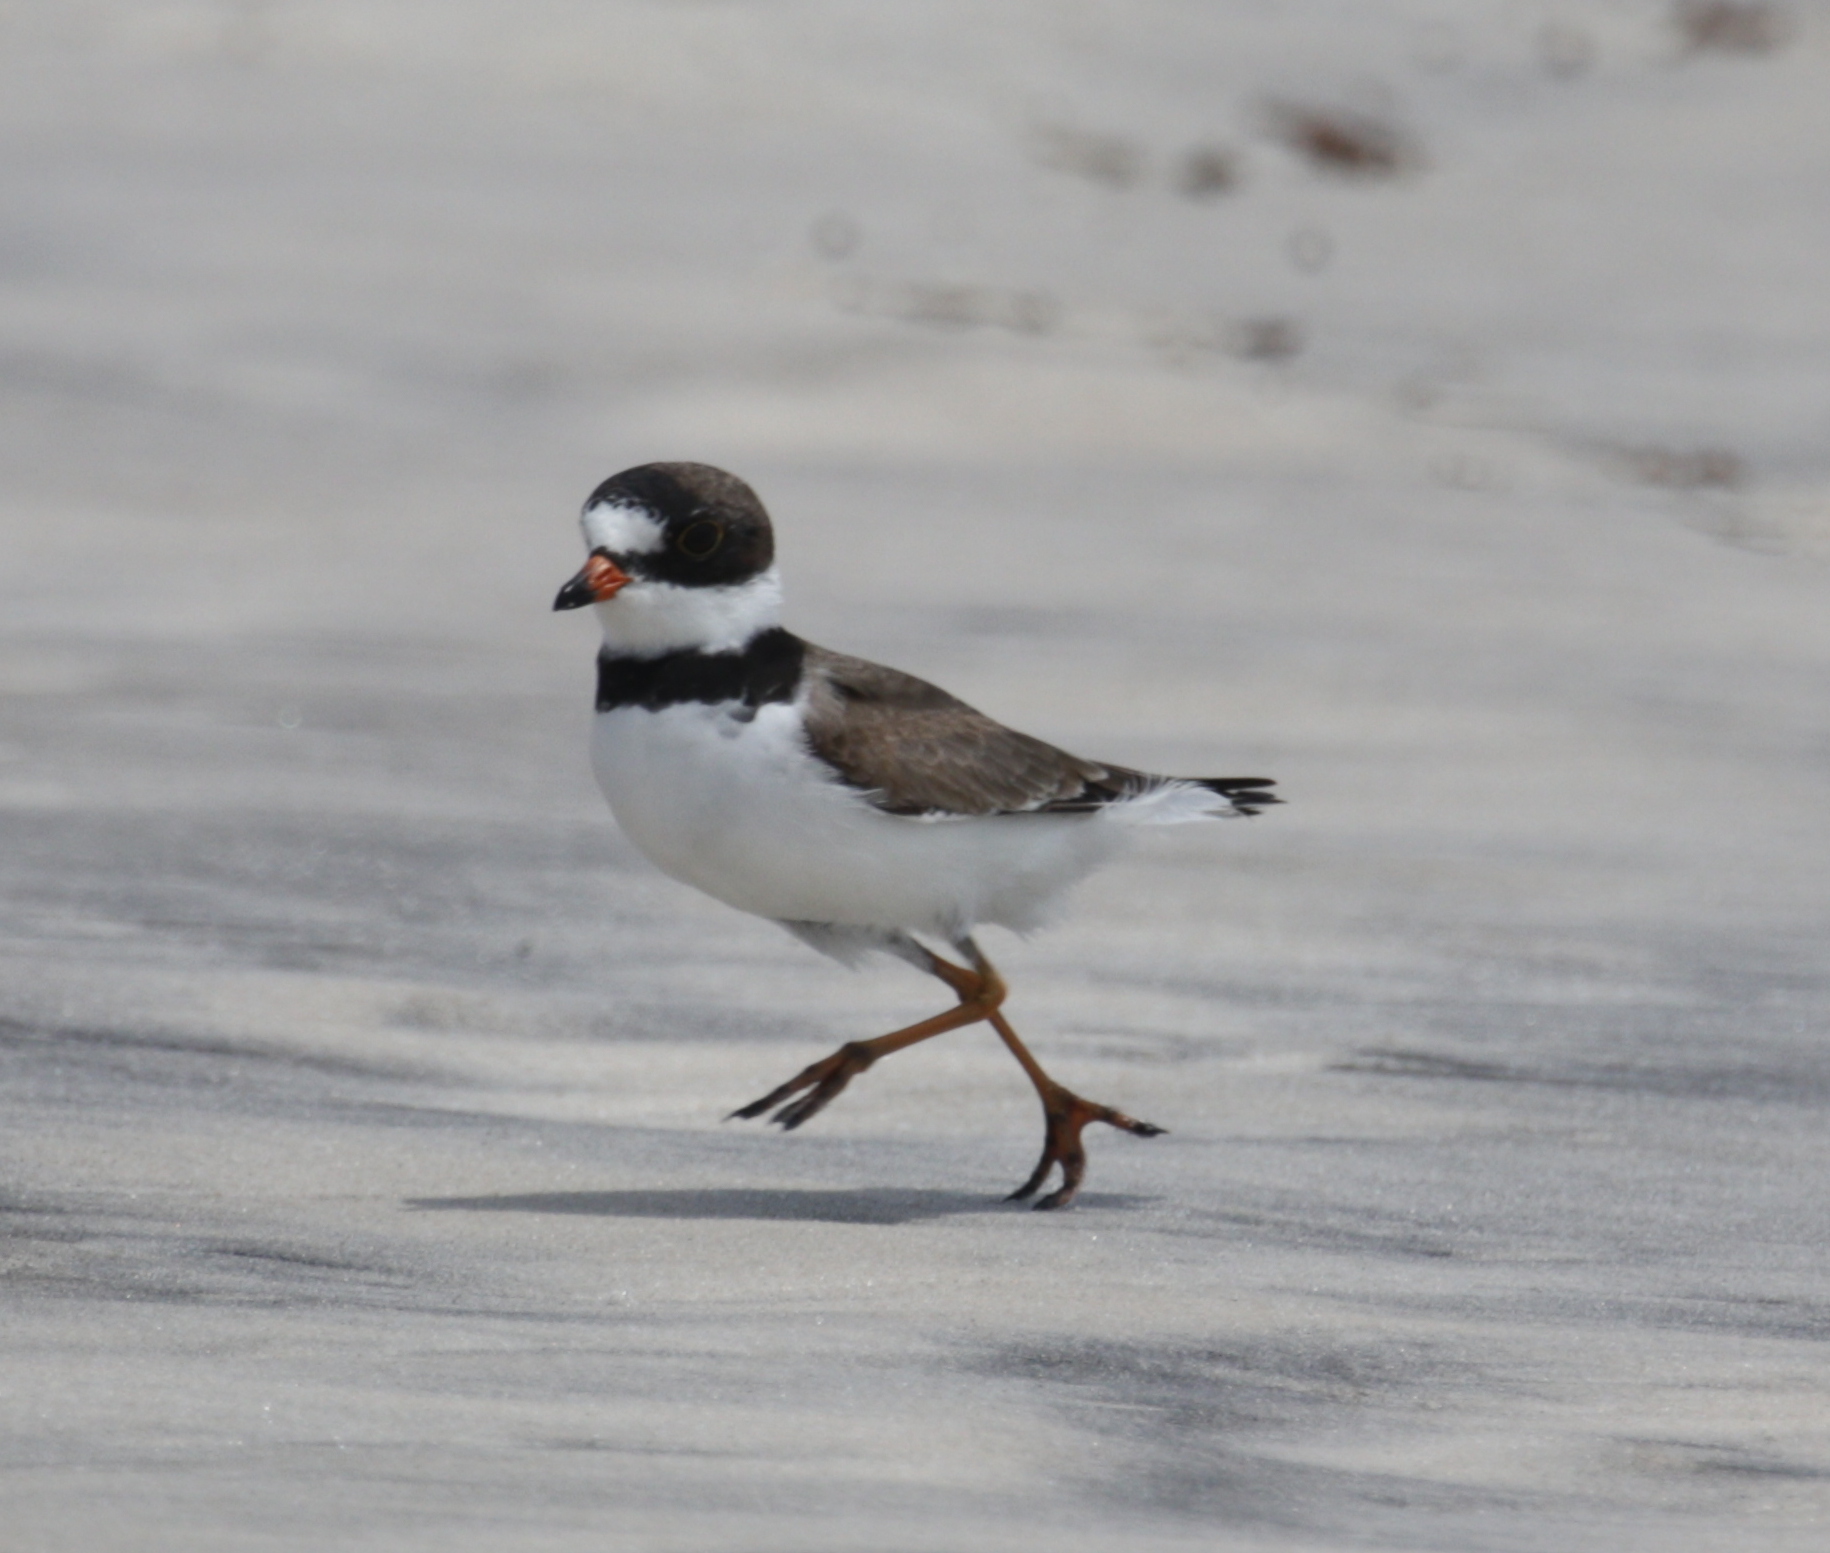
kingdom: Animalia
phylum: Chordata
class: Aves
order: Charadriiformes
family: Charadriidae
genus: Charadrius
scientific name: Charadrius semipalmatus
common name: Semipalmated plover
